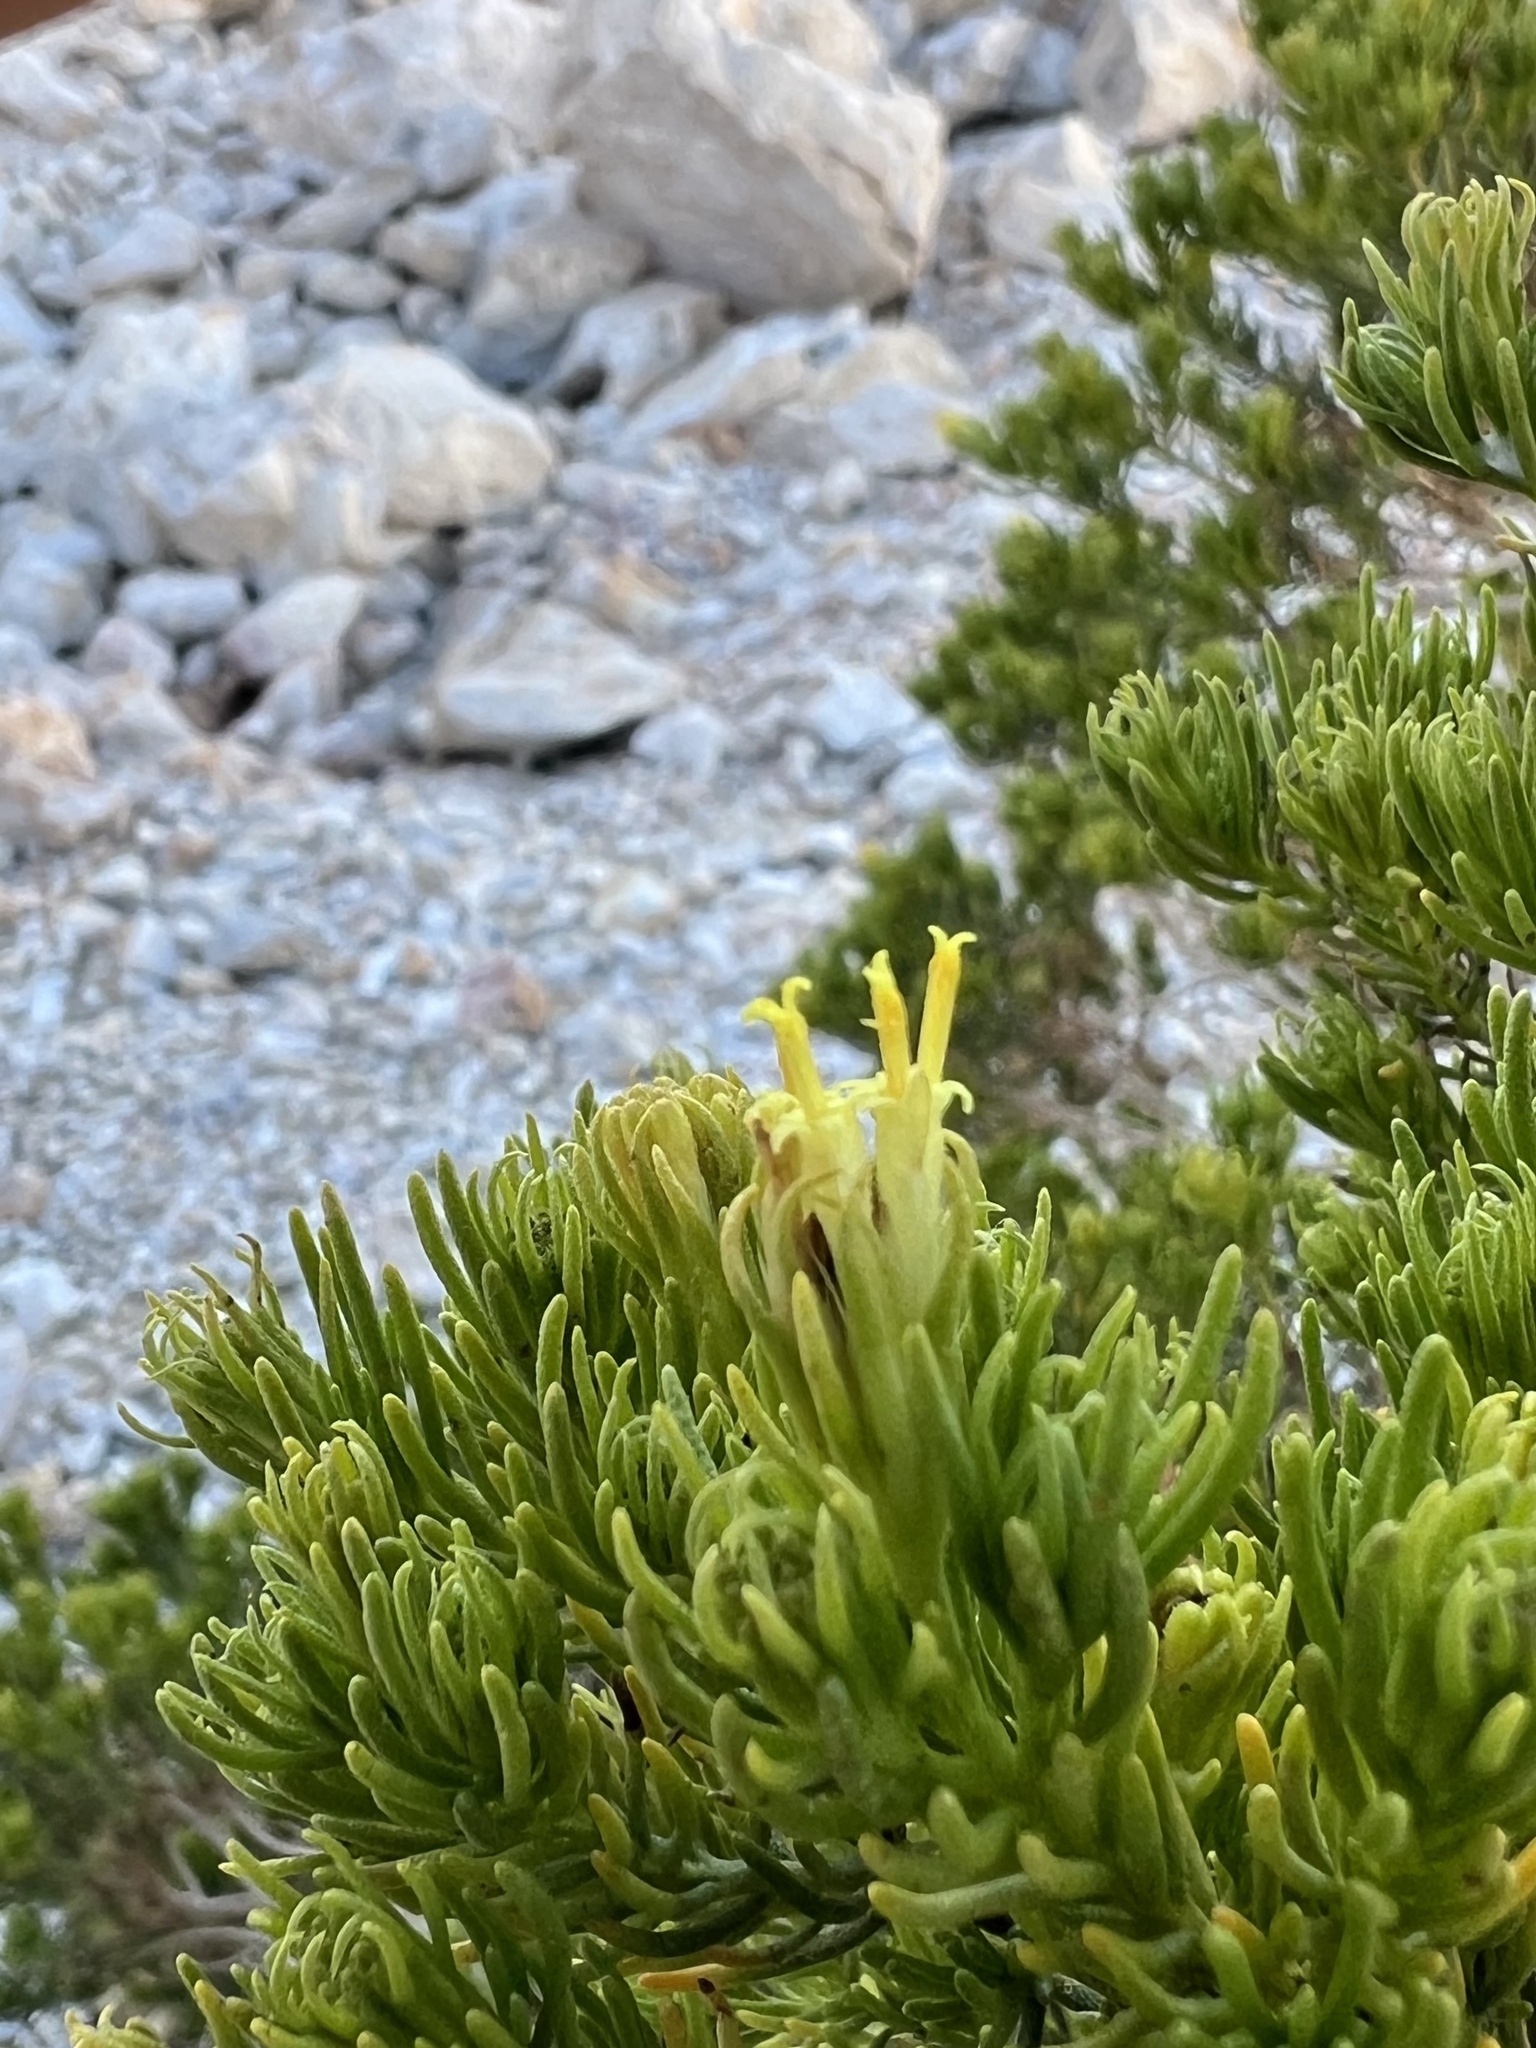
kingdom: Plantae
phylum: Tracheophyta
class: Magnoliopsida
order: Asterales
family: Asteraceae
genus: Peucephyllum
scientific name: Peucephyllum schottii
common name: Pygmy-cedar
